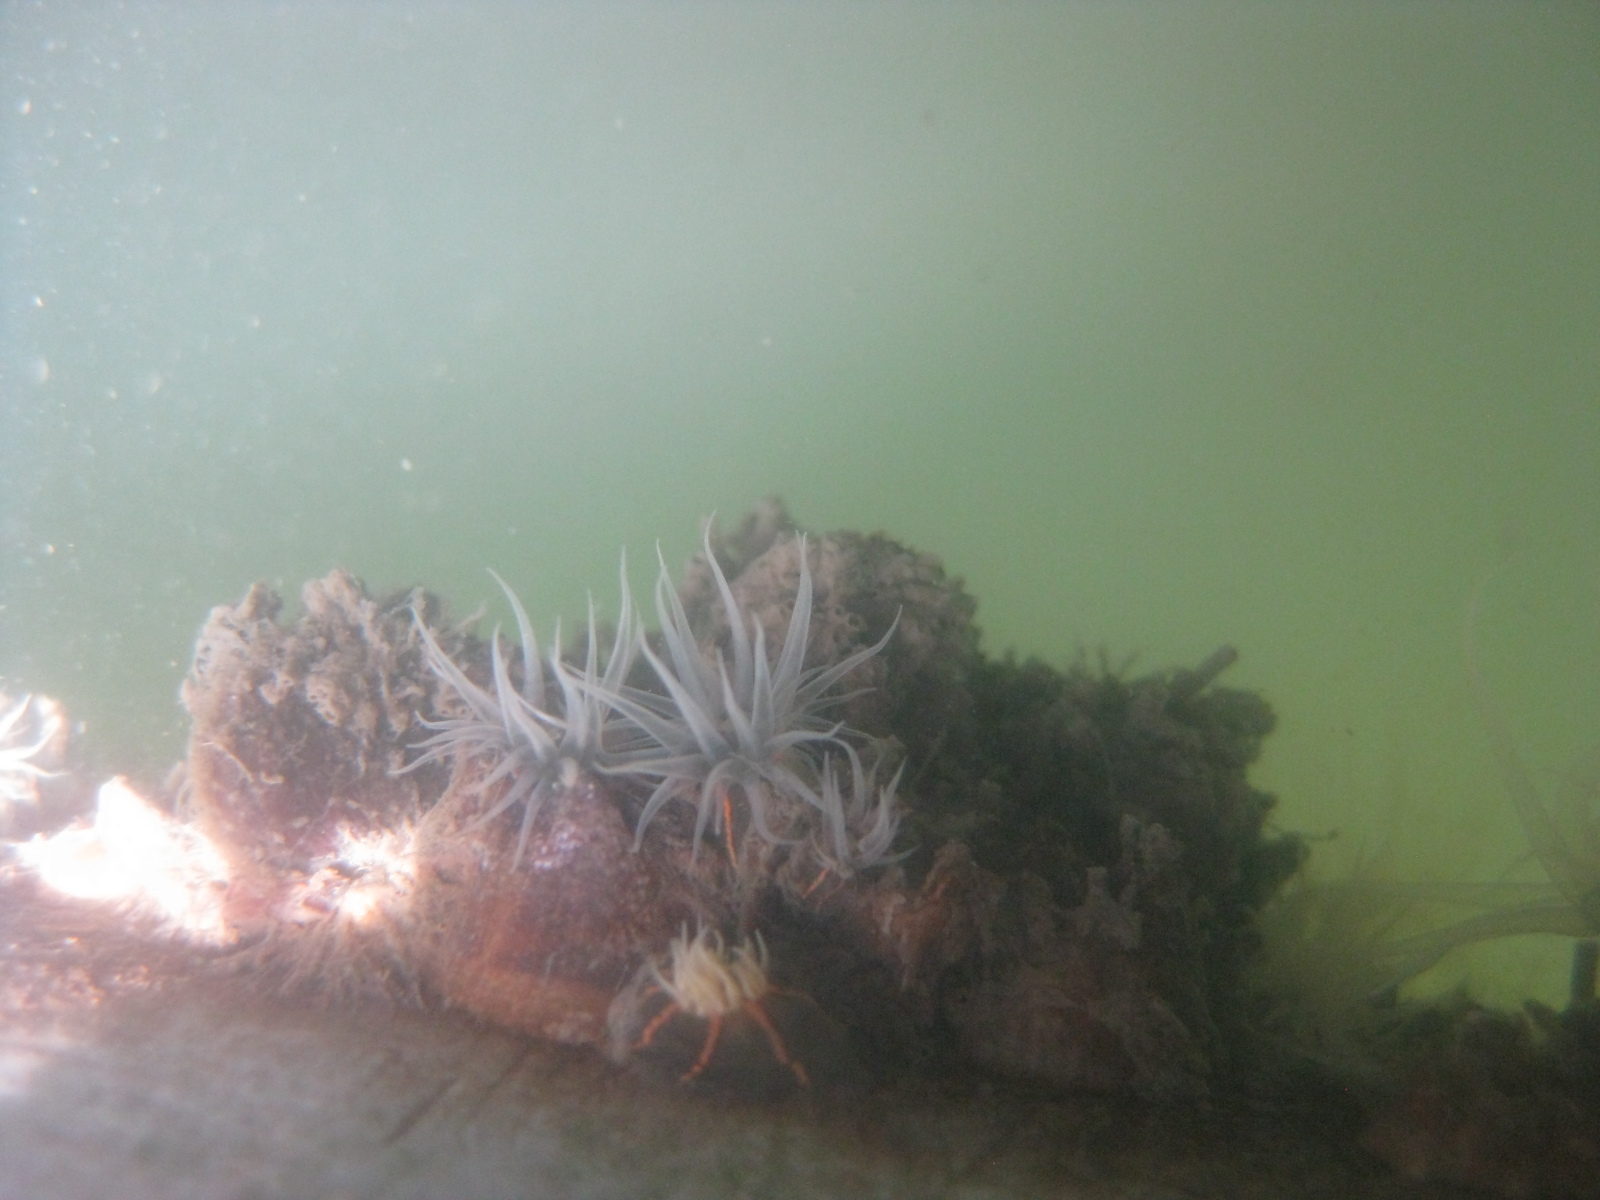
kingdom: Animalia
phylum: Cnidaria
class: Anthozoa
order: Actiniaria
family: Diadumenidae
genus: Diadumene
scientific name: Diadumene lineata
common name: Orange-striped anemone
